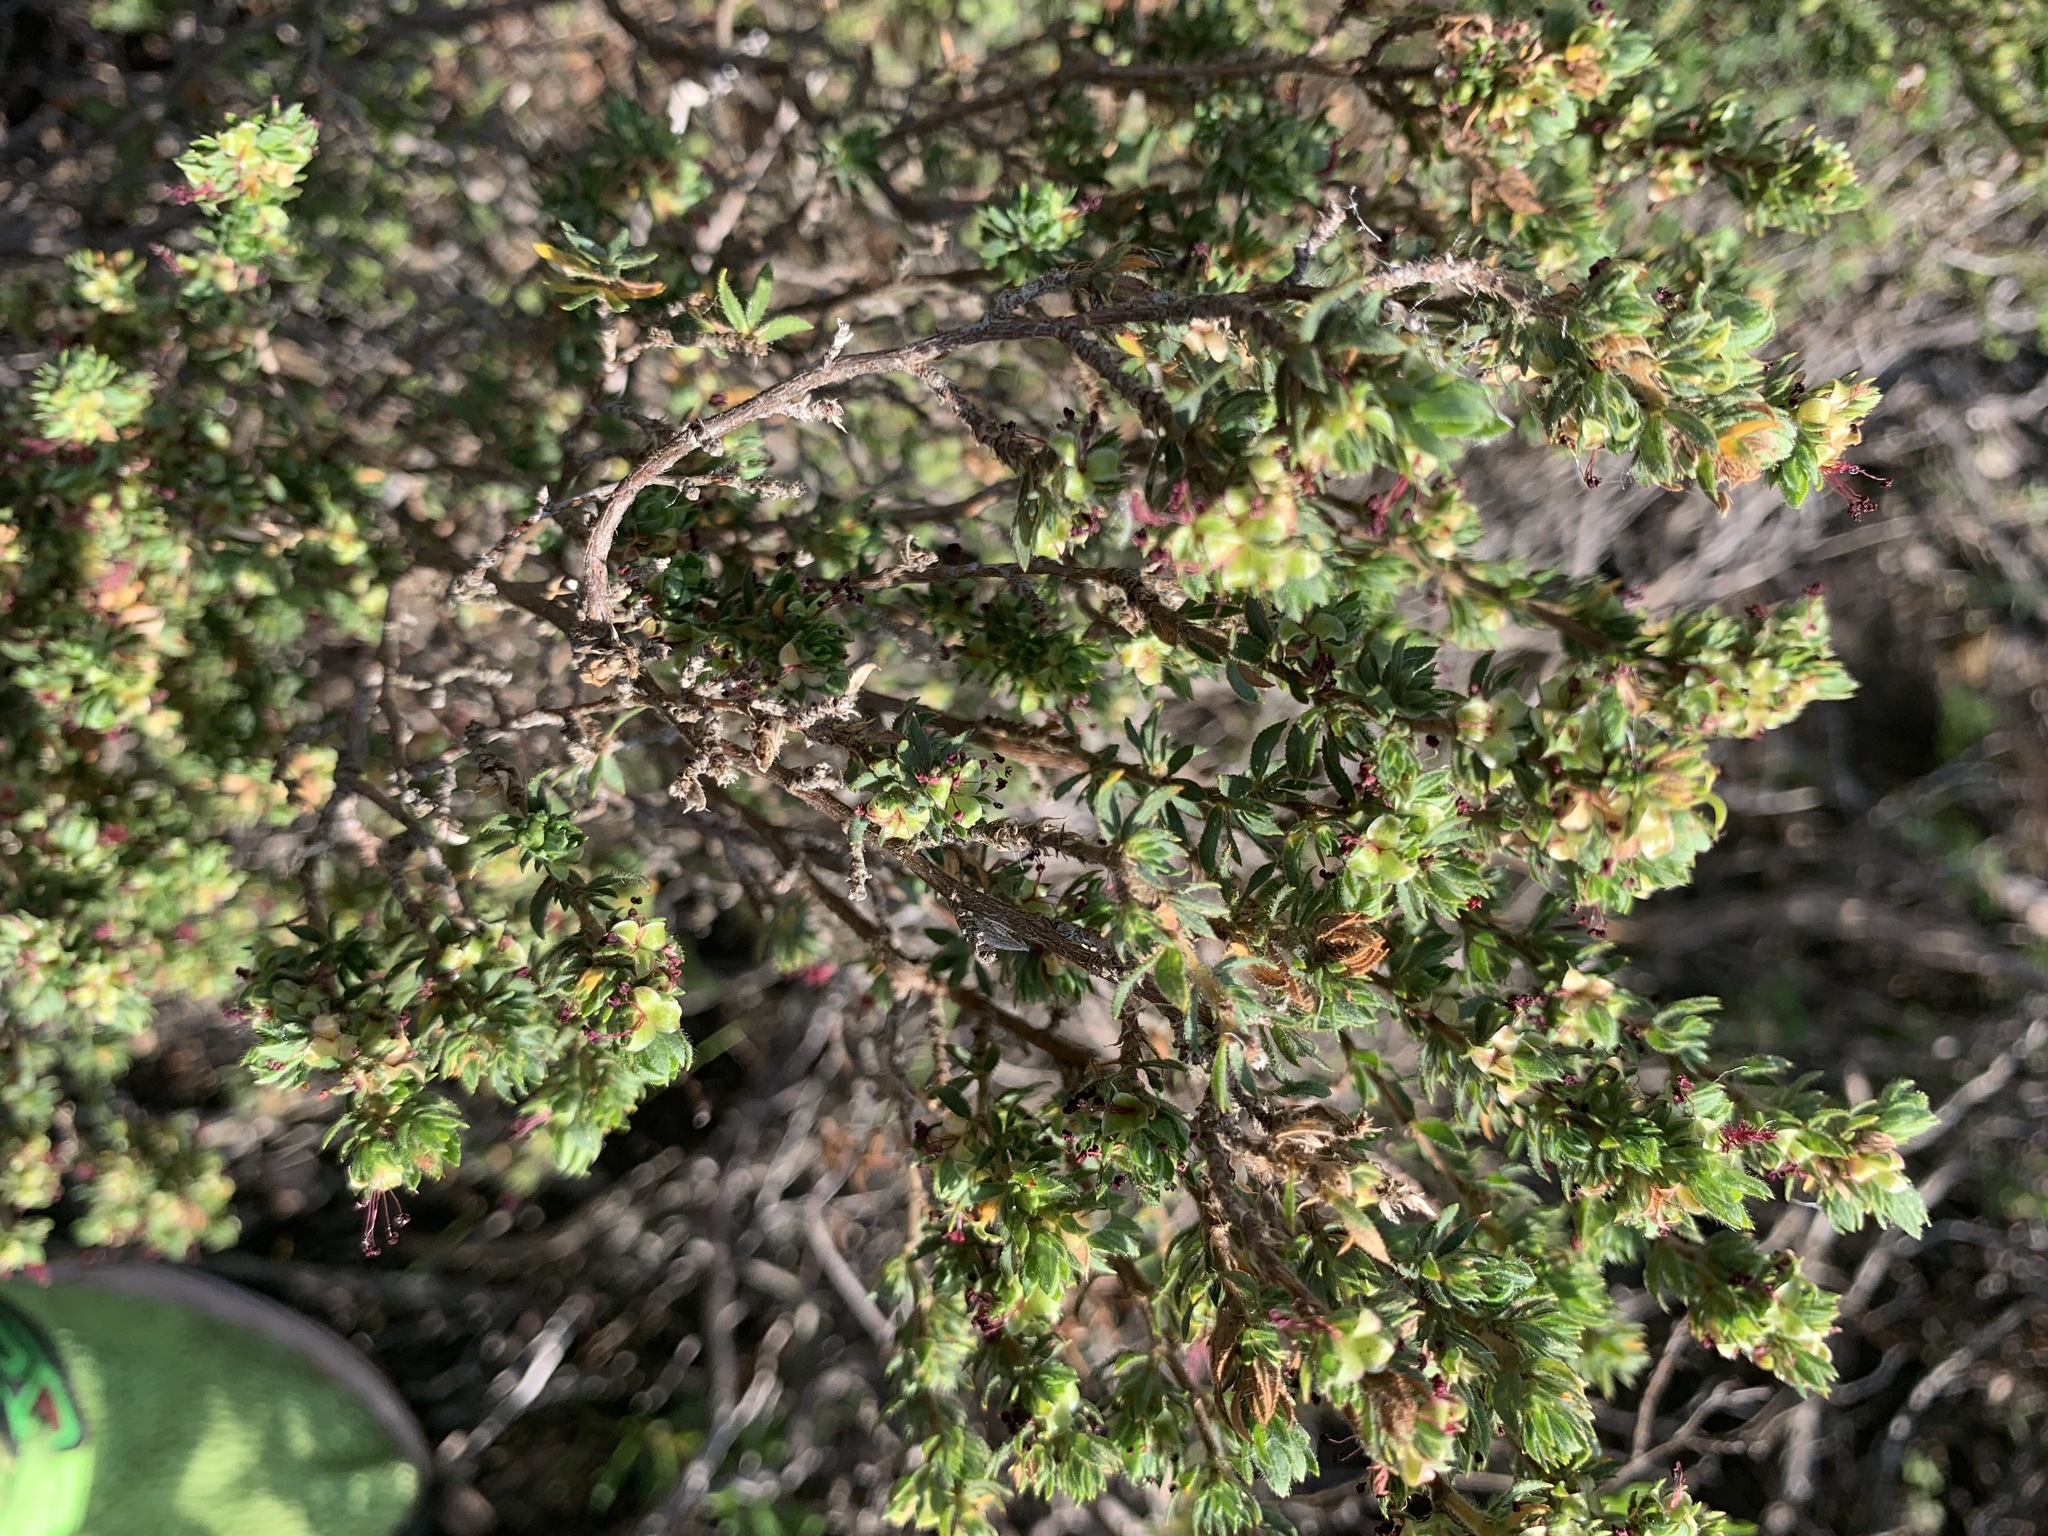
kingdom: Plantae
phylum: Tracheophyta
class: Magnoliopsida
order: Rosales
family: Rosaceae
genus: Cliffortia
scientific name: Cliffortia polygonifolia
